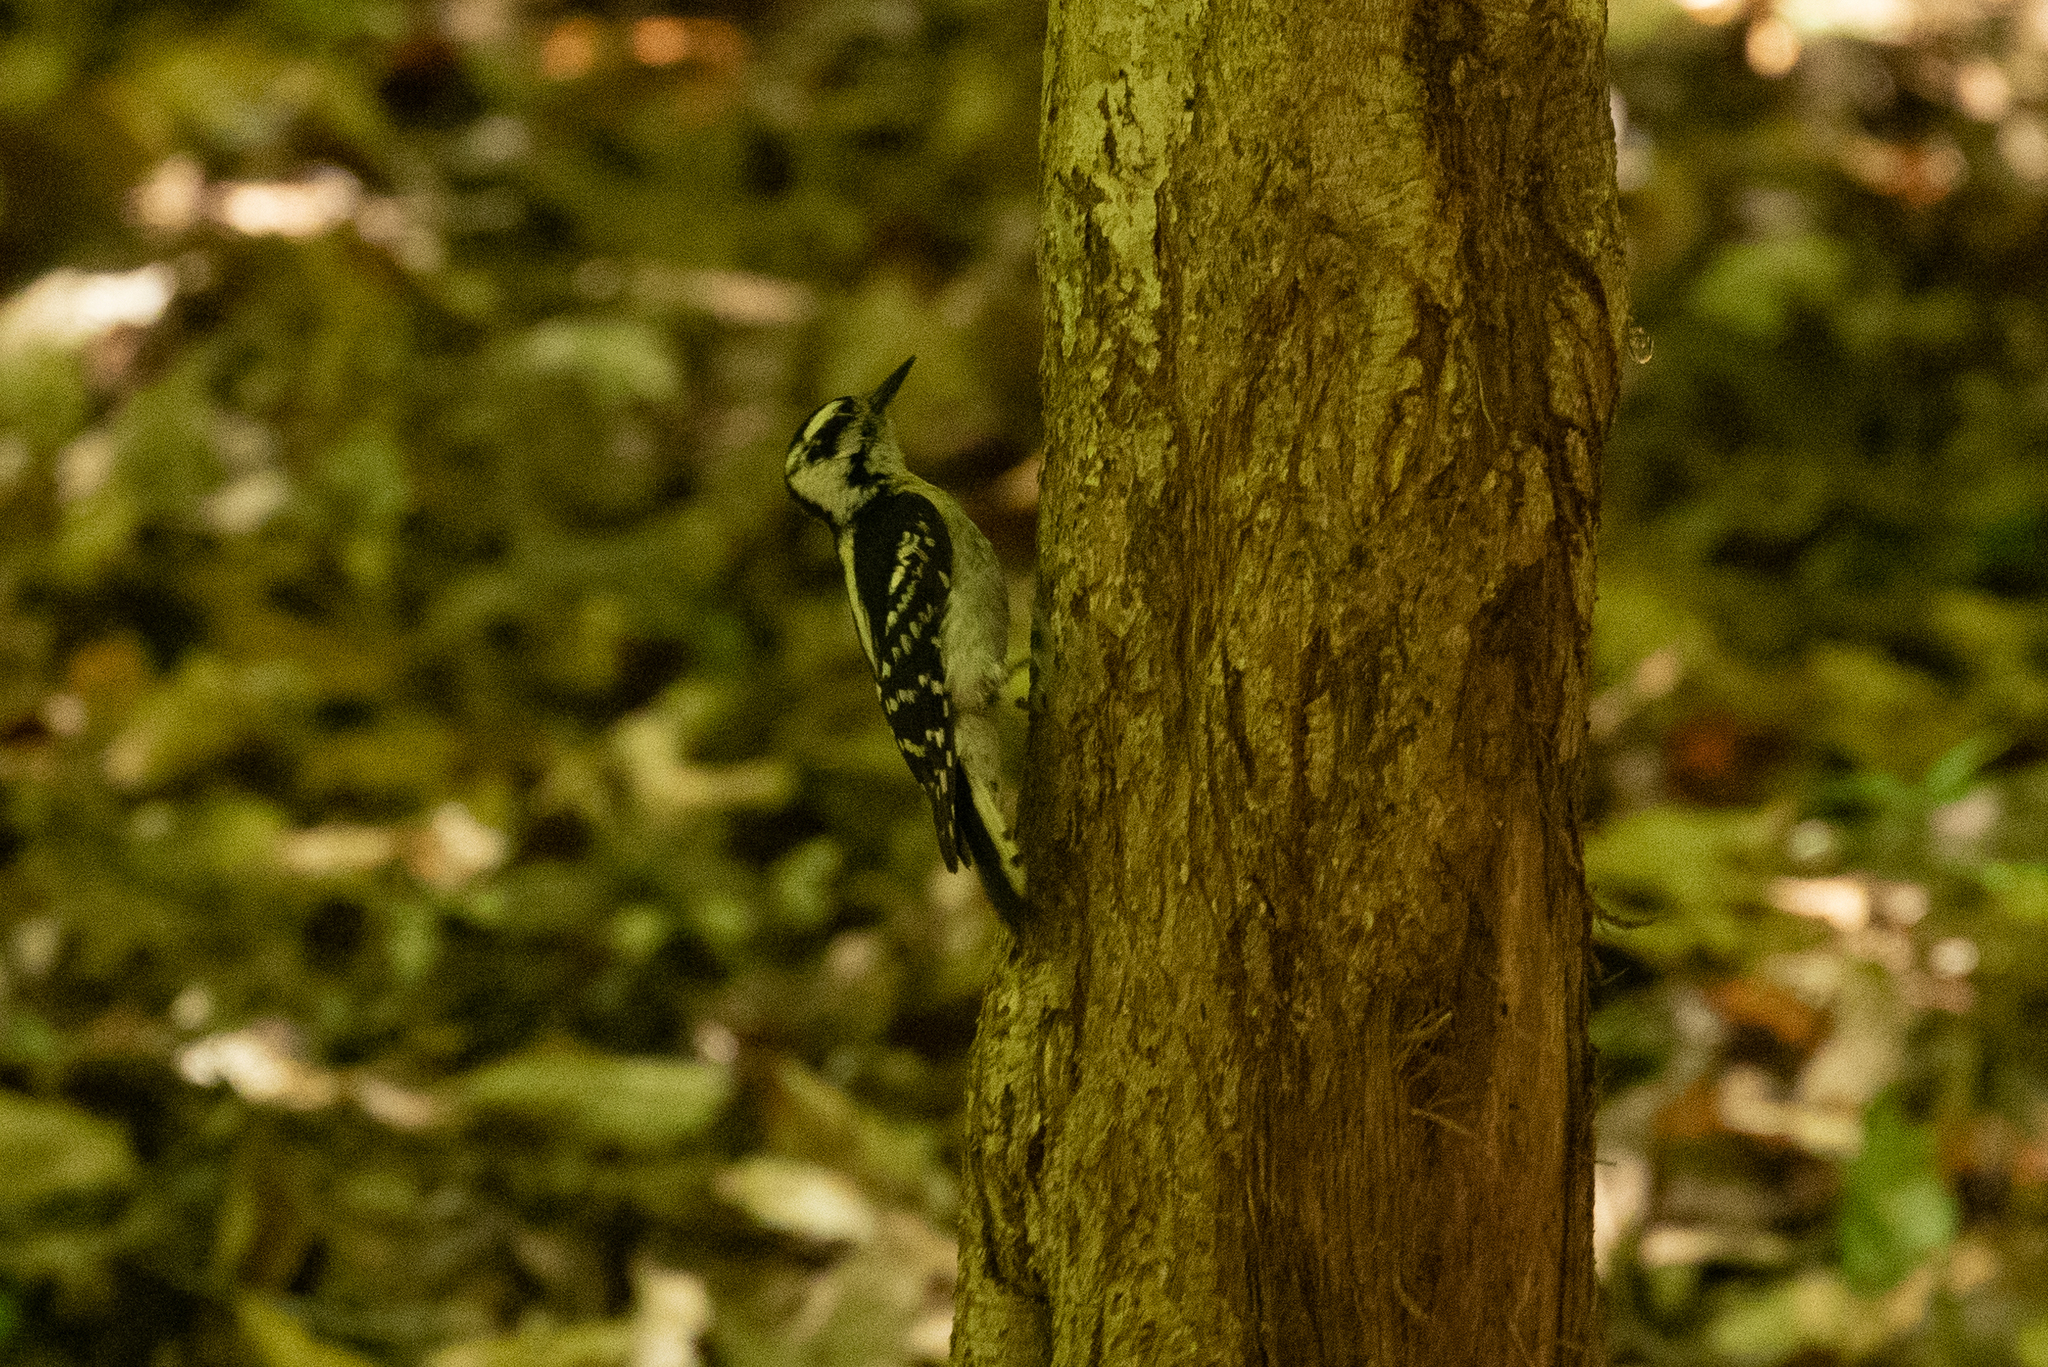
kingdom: Animalia
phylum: Chordata
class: Aves
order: Piciformes
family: Picidae
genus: Dryobates
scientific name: Dryobates pubescens
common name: Downy woodpecker
